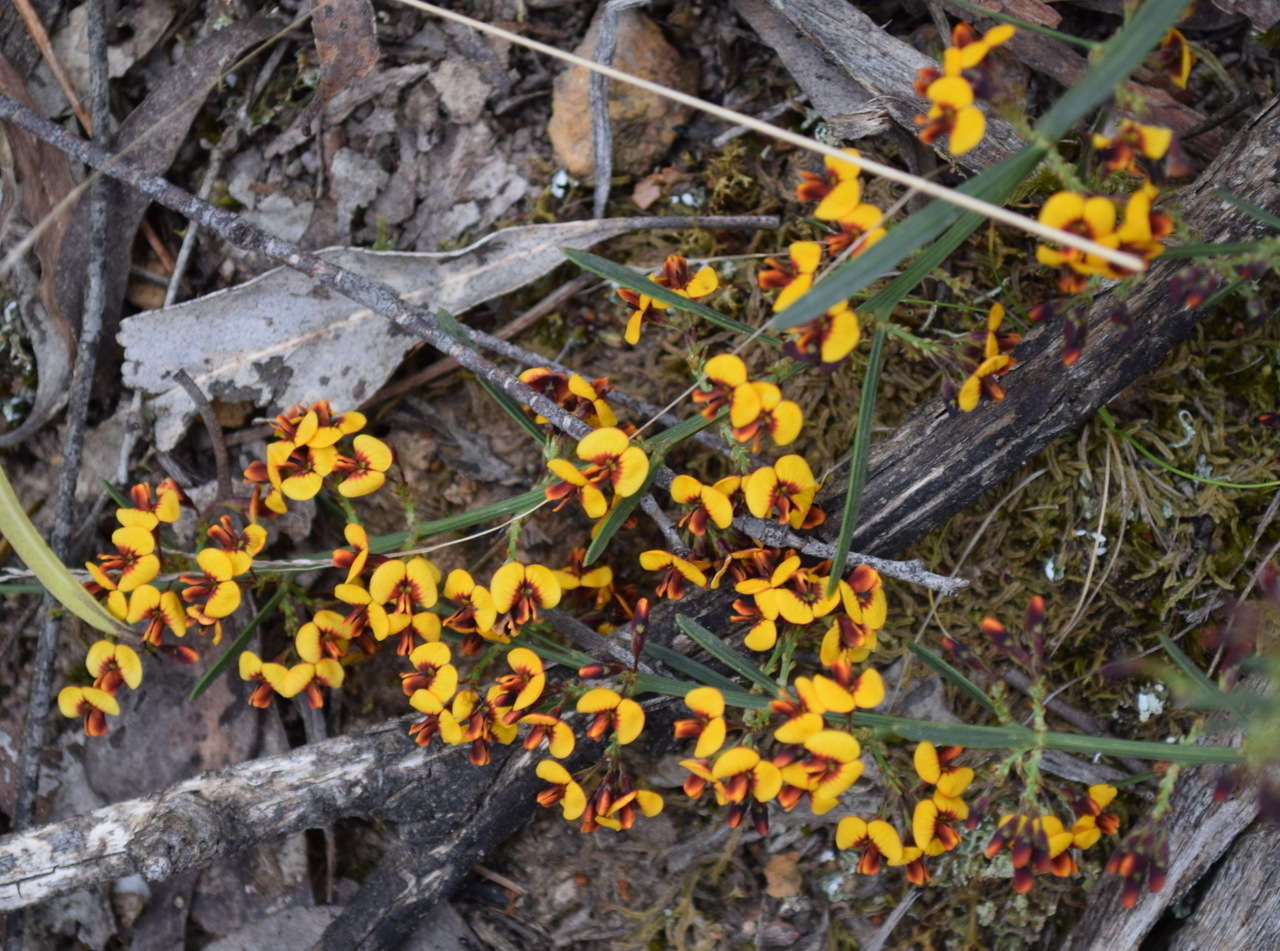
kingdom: Plantae
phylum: Tracheophyta
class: Magnoliopsida
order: Fabales
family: Fabaceae
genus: Daviesia
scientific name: Daviesia leptophylla
